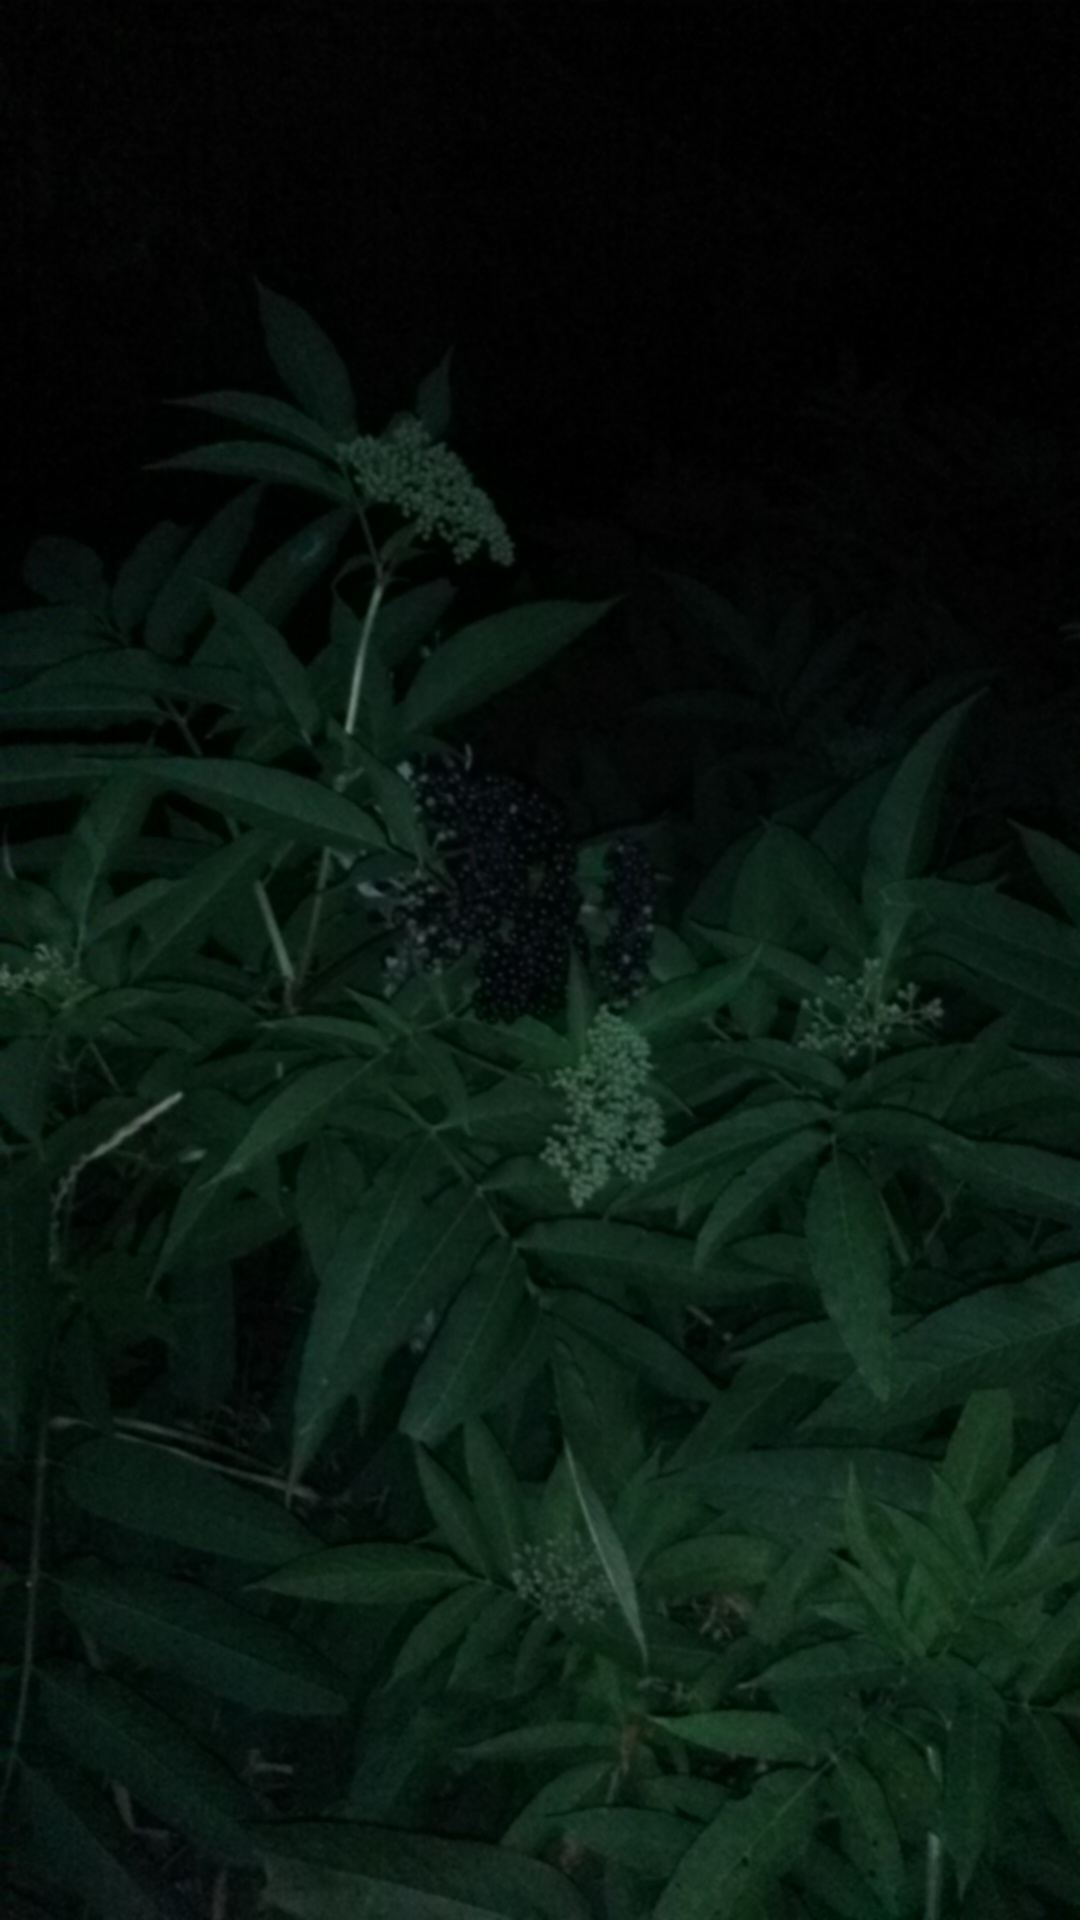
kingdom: Plantae
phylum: Tracheophyta
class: Magnoliopsida
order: Dipsacales
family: Viburnaceae
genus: Sambucus
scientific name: Sambucus ebulus
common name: Dwarf elder
